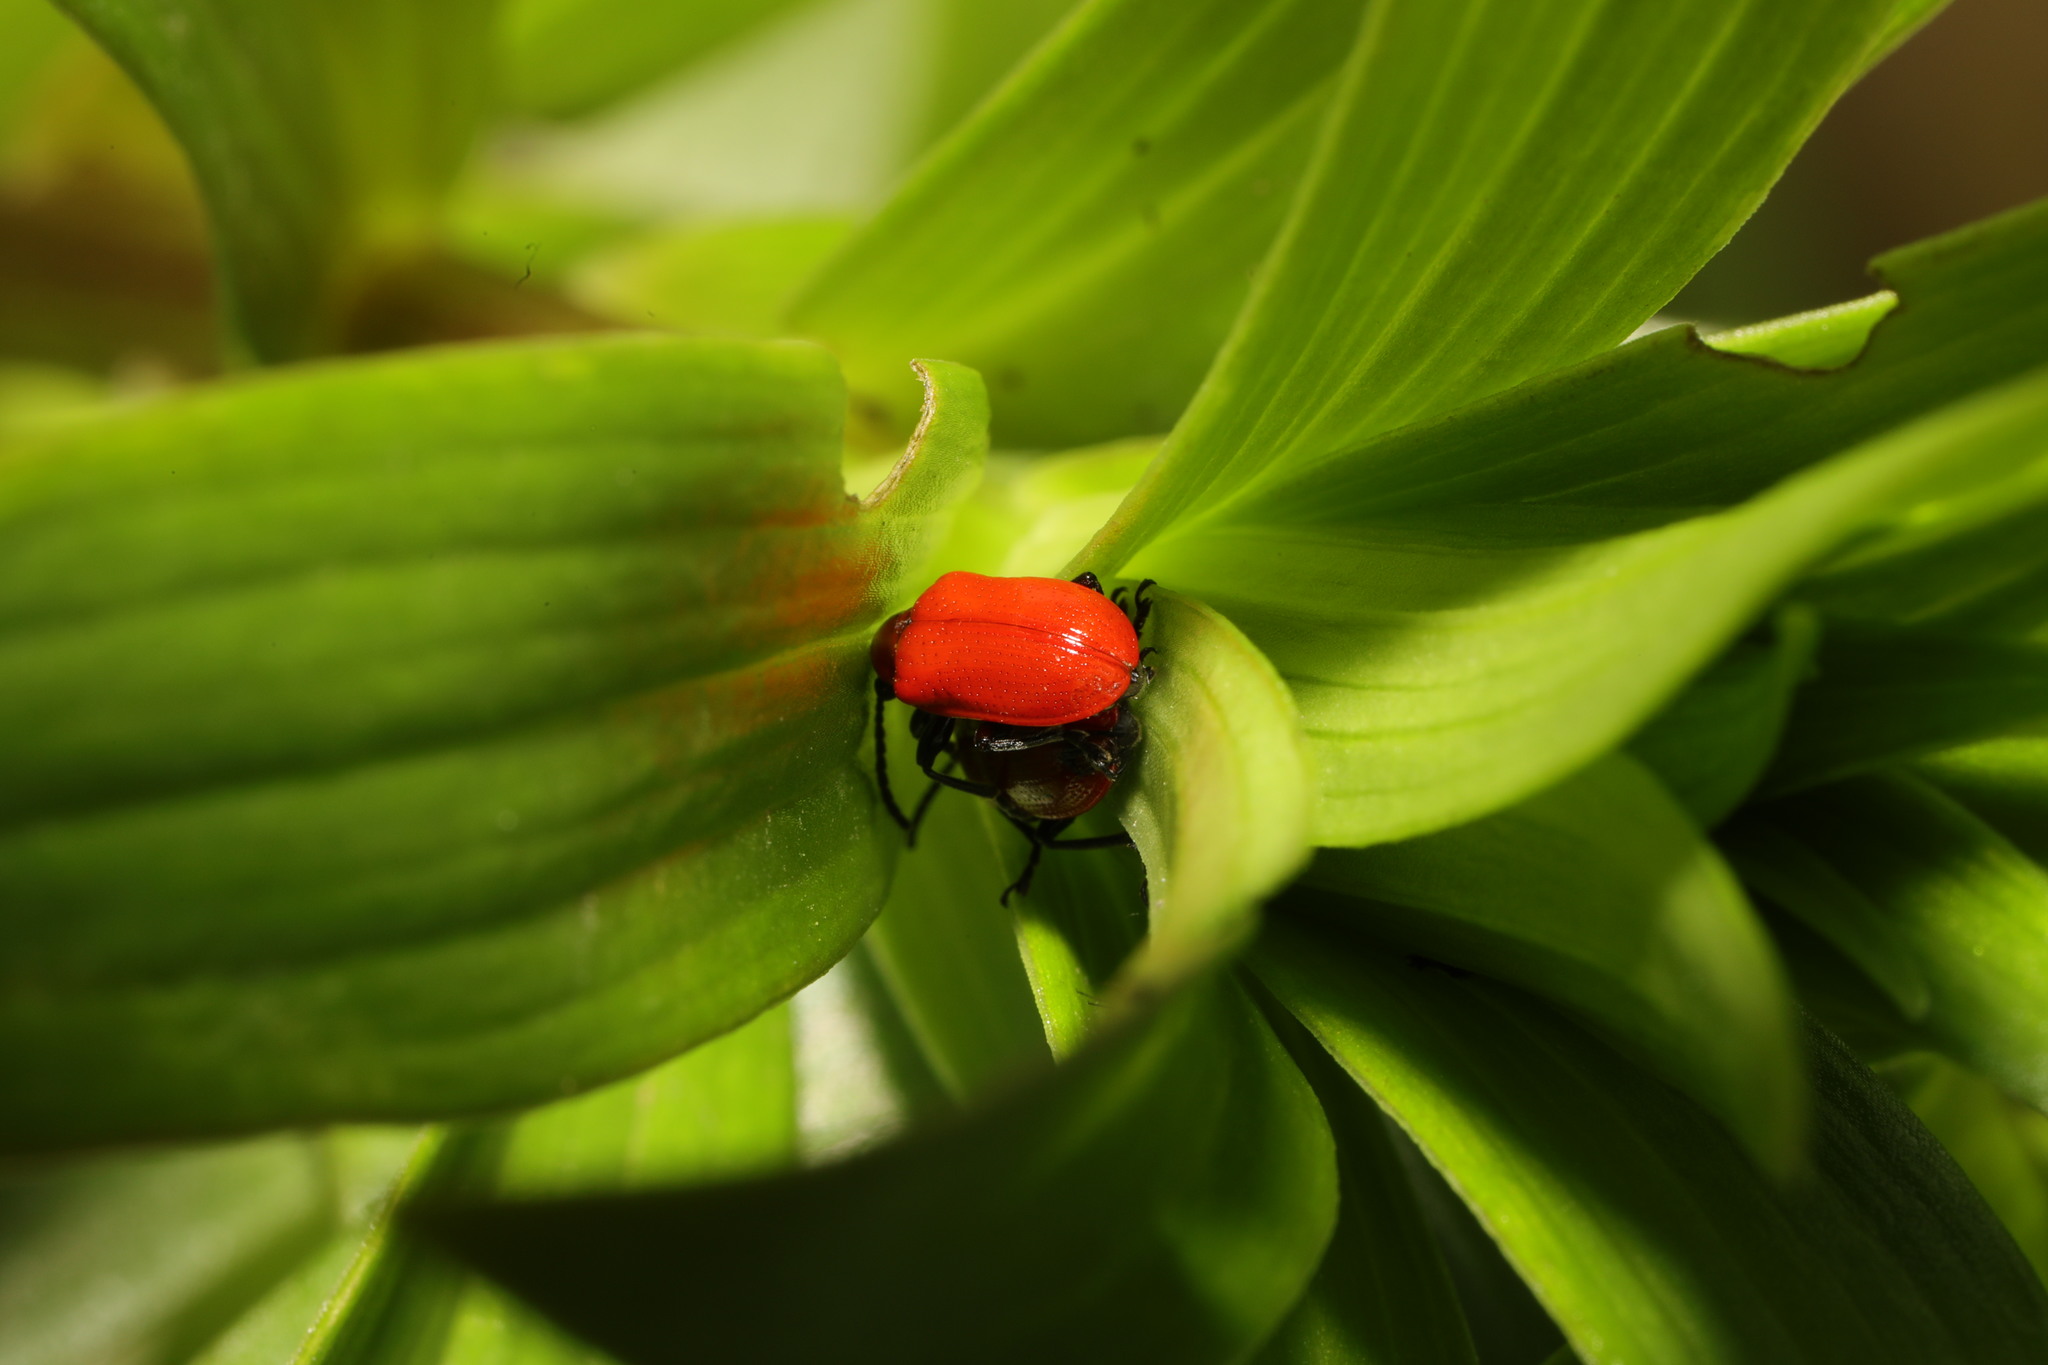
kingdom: Animalia
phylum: Arthropoda
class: Insecta
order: Coleoptera
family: Chrysomelidae
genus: Lilioceris
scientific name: Lilioceris lilii
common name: Lily beetle
